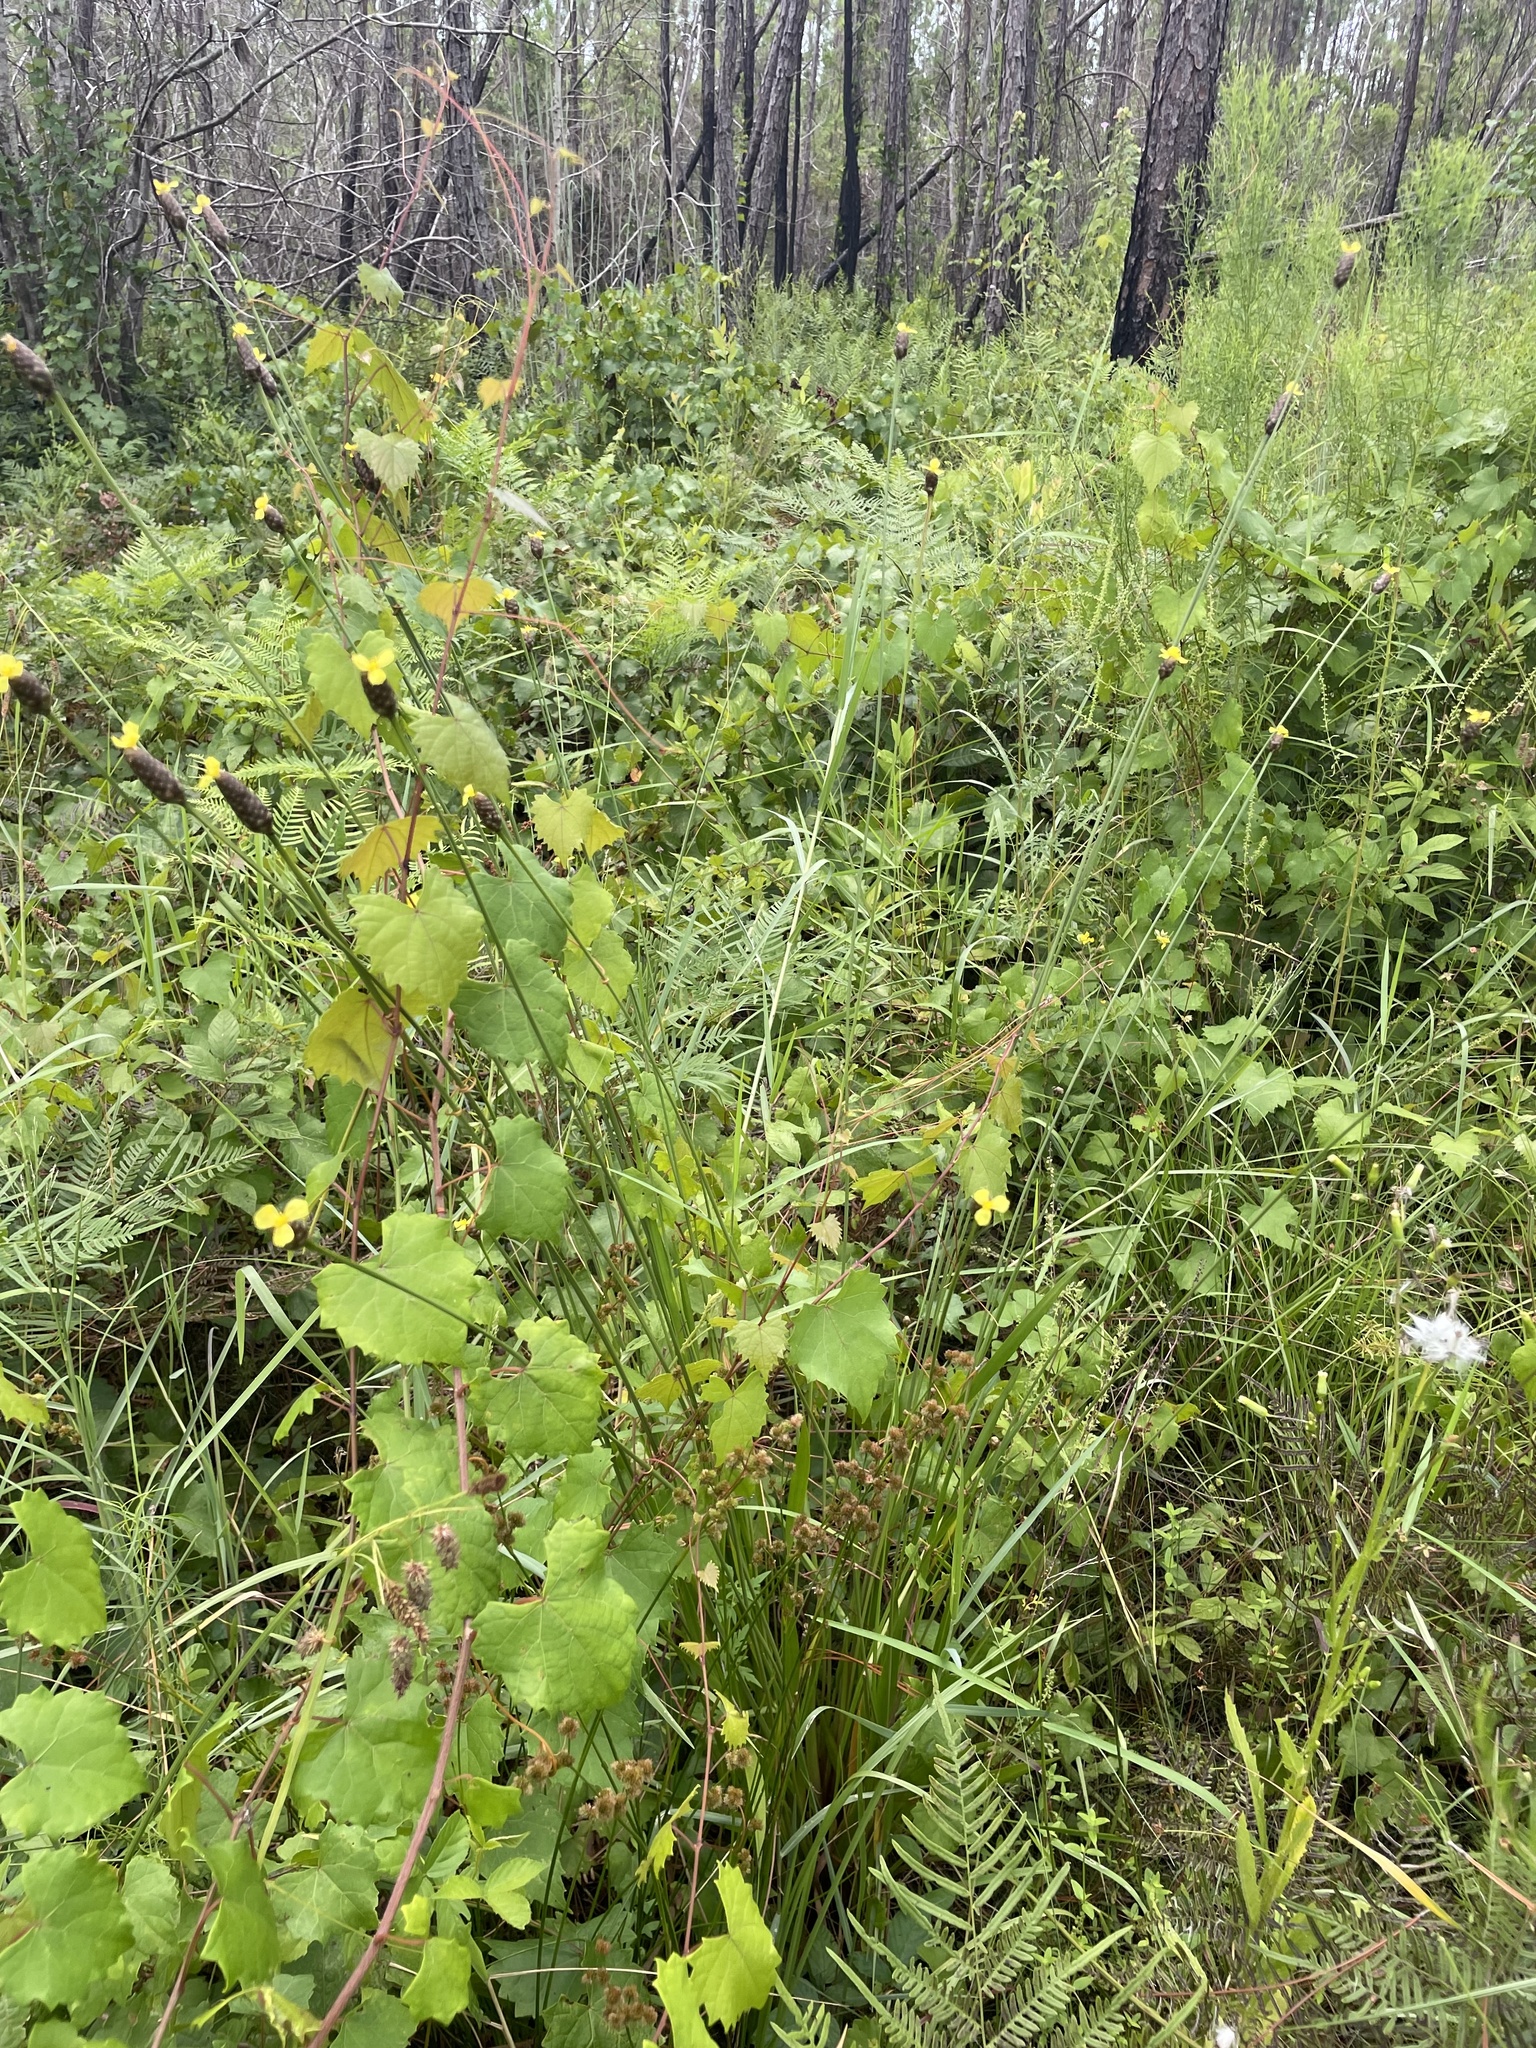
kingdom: Plantae
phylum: Tracheophyta
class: Liliopsida
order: Poales
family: Xyridaceae
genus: Xyris
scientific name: Xyris platylepis
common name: Tall yelloweyed grass
